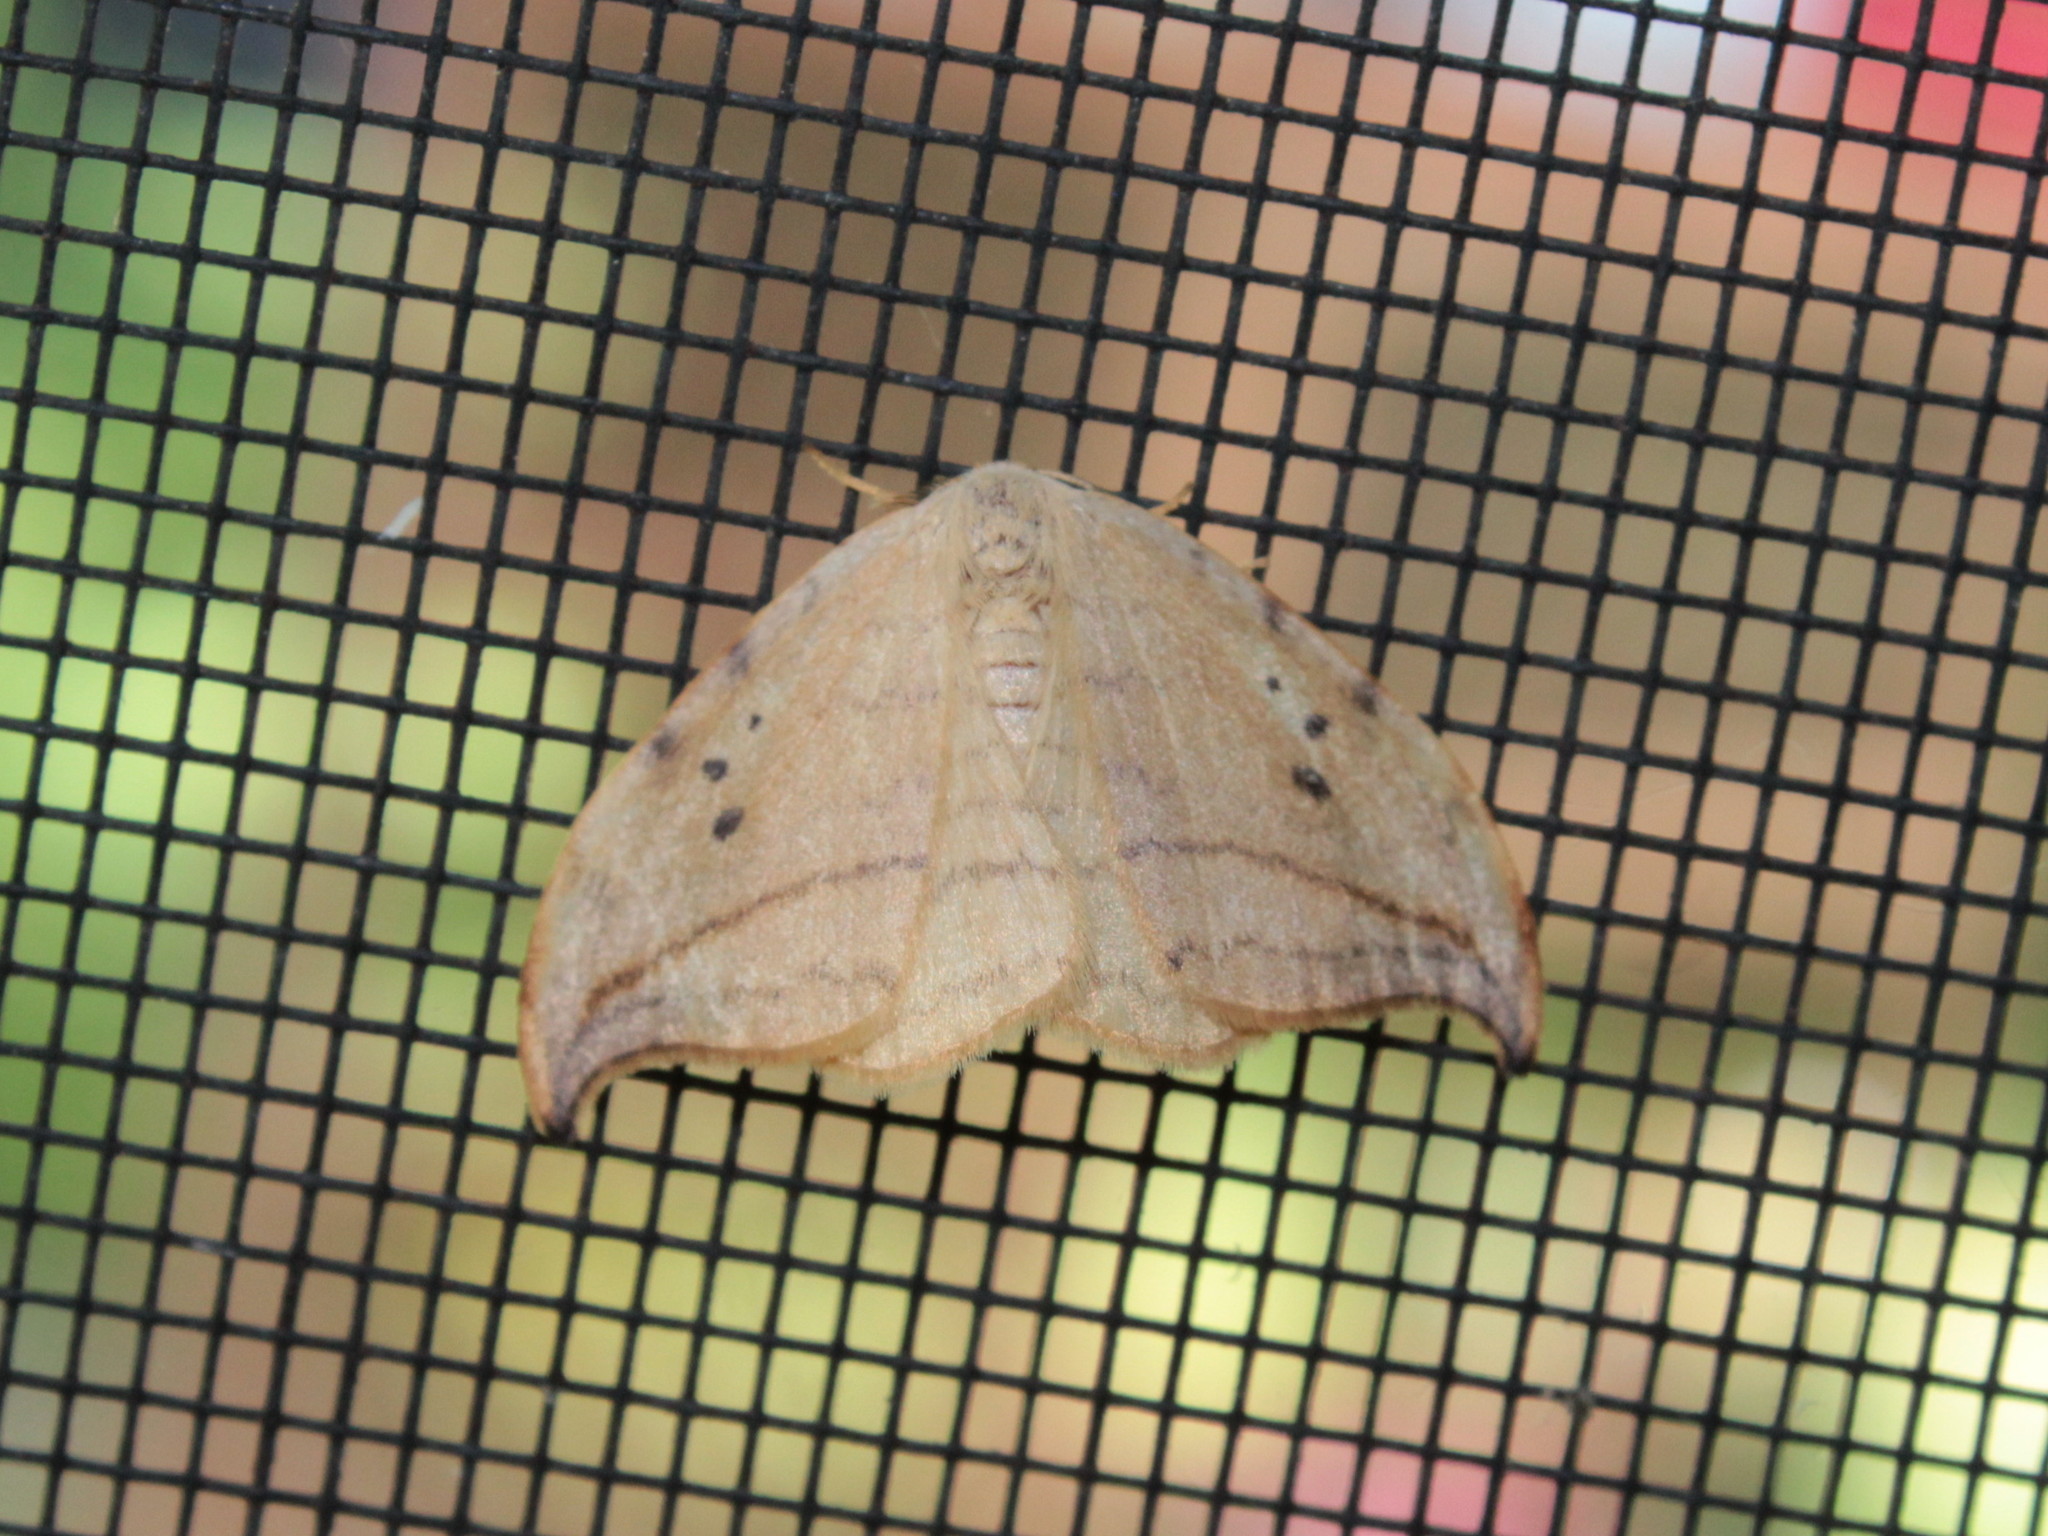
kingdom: Animalia
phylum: Arthropoda
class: Insecta
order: Lepidoptera
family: Drepanidae
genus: Drepana
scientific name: Drepana arcuata
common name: Arched hooktip moth
